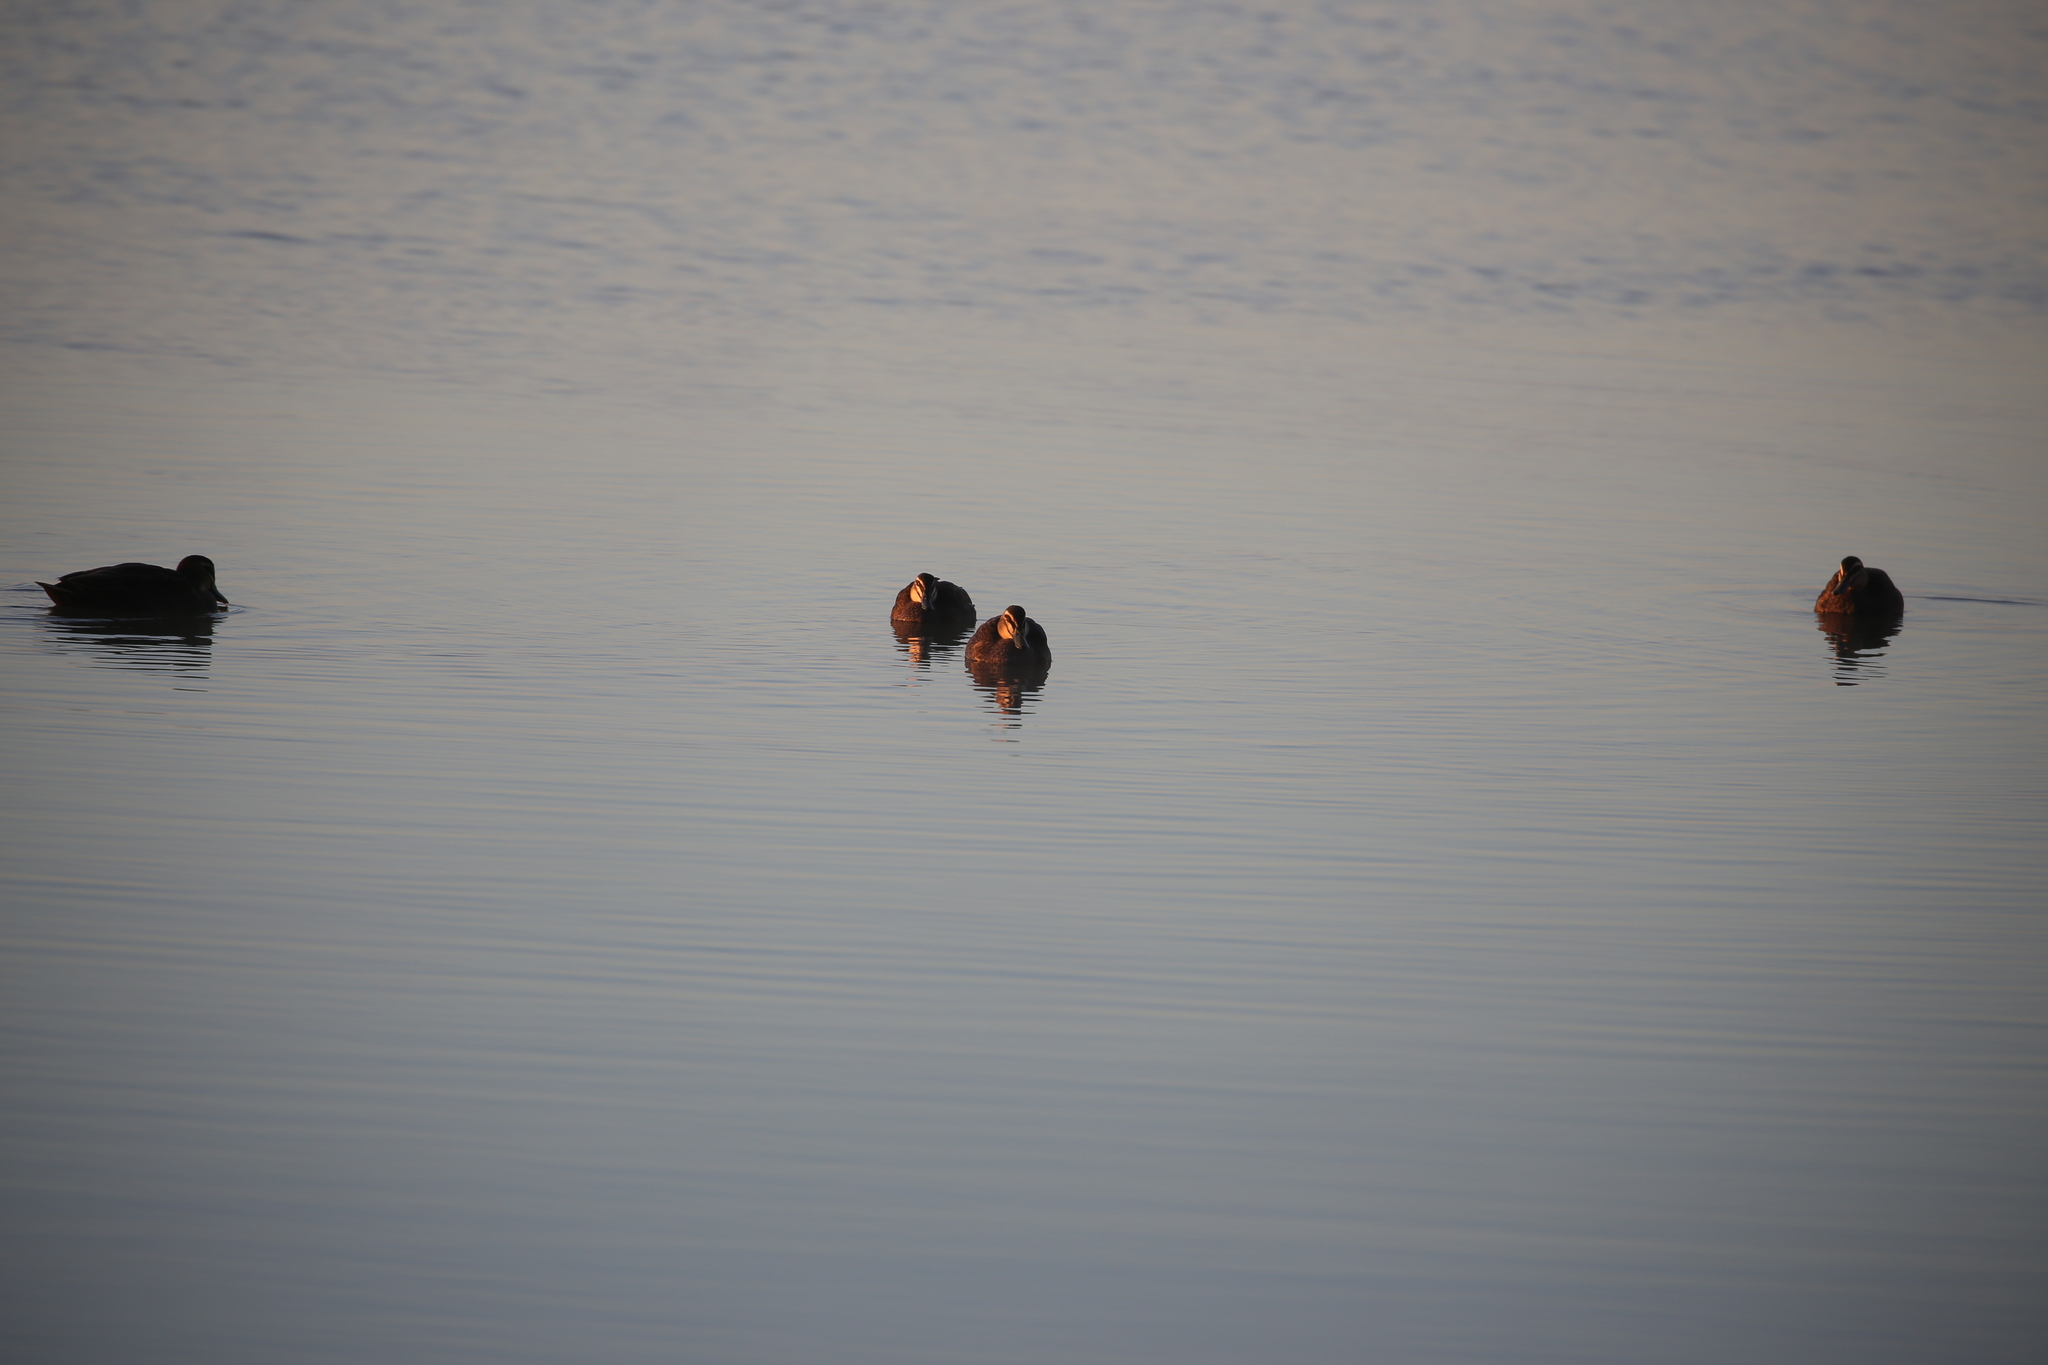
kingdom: Animalia
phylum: Chordata
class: Aves
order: Anseriformes
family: Anatidae
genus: Anas
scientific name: Anas superciliosa
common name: Pacific black duck
